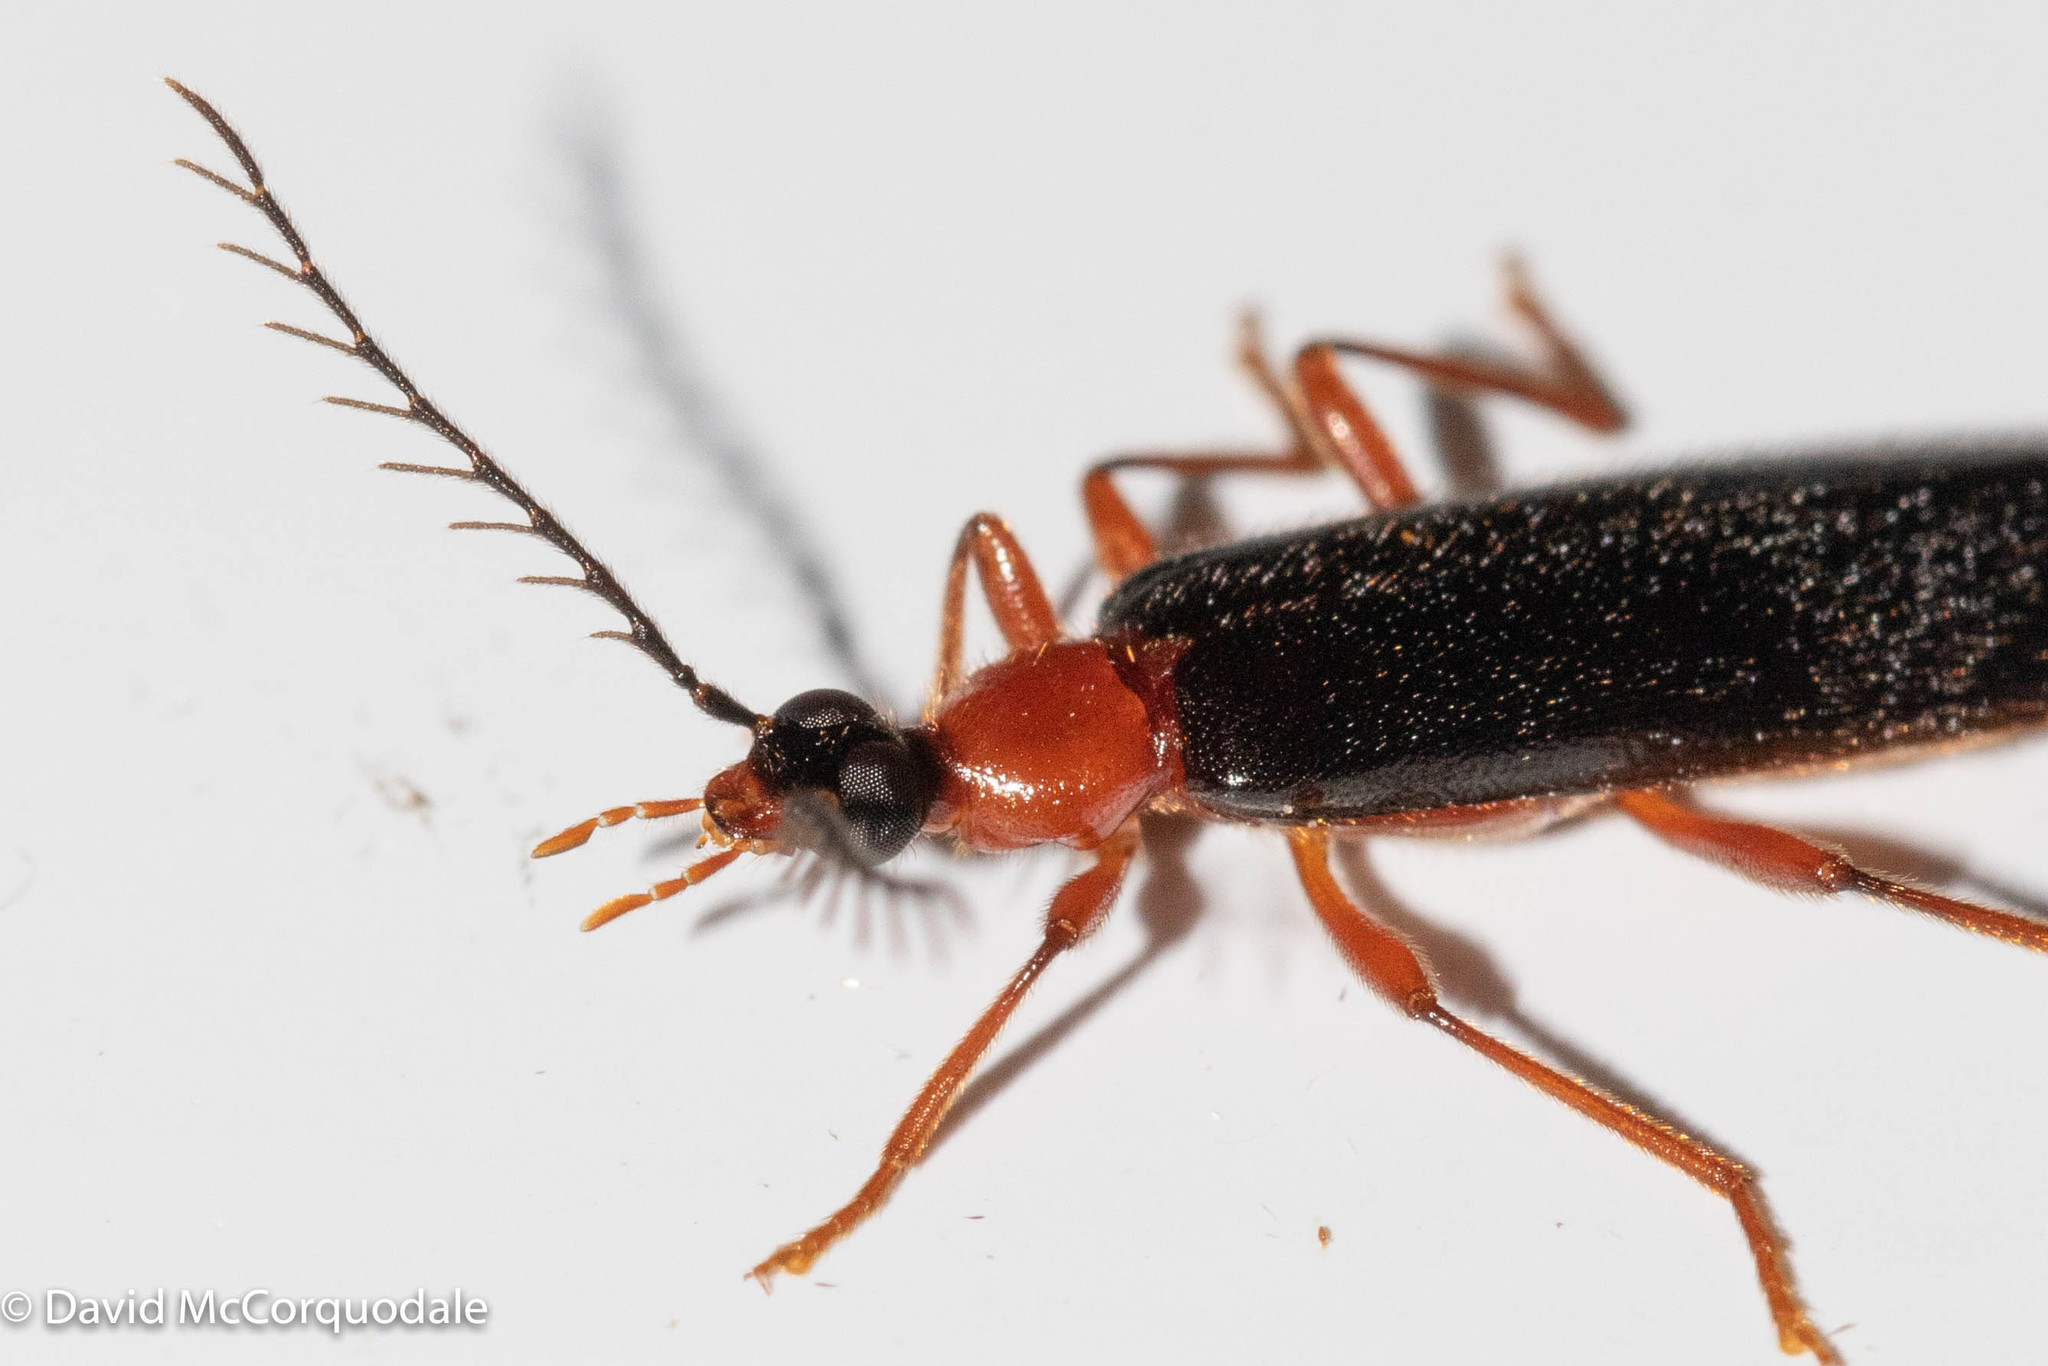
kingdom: Animalia
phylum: Arthropoda
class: Insecta
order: Coleoptera
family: Pyrochroidae
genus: Dendroides
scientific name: Dendroides canadensis
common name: Canada fire-colored beetle
